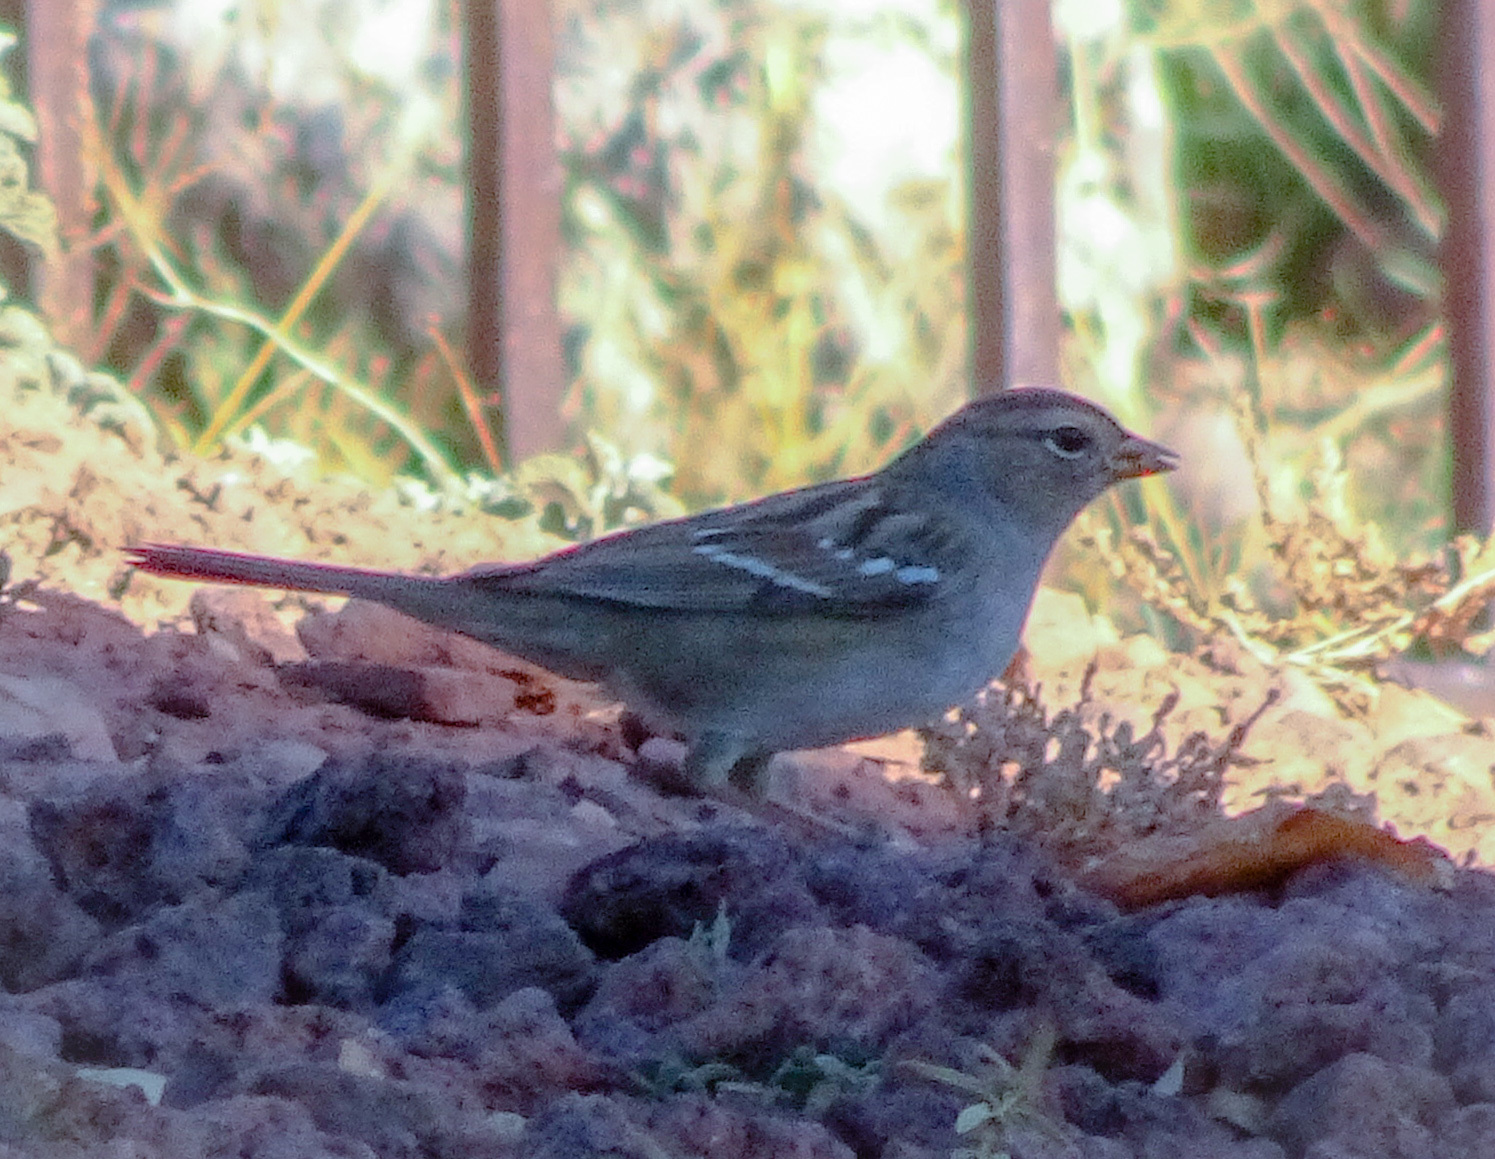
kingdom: Animalia
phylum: Chordata
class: Aves
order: Passeriformes
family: Passerellidae
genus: Zonotrichia
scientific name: Zonotrichia leucophrys
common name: White-crowned sparrow
